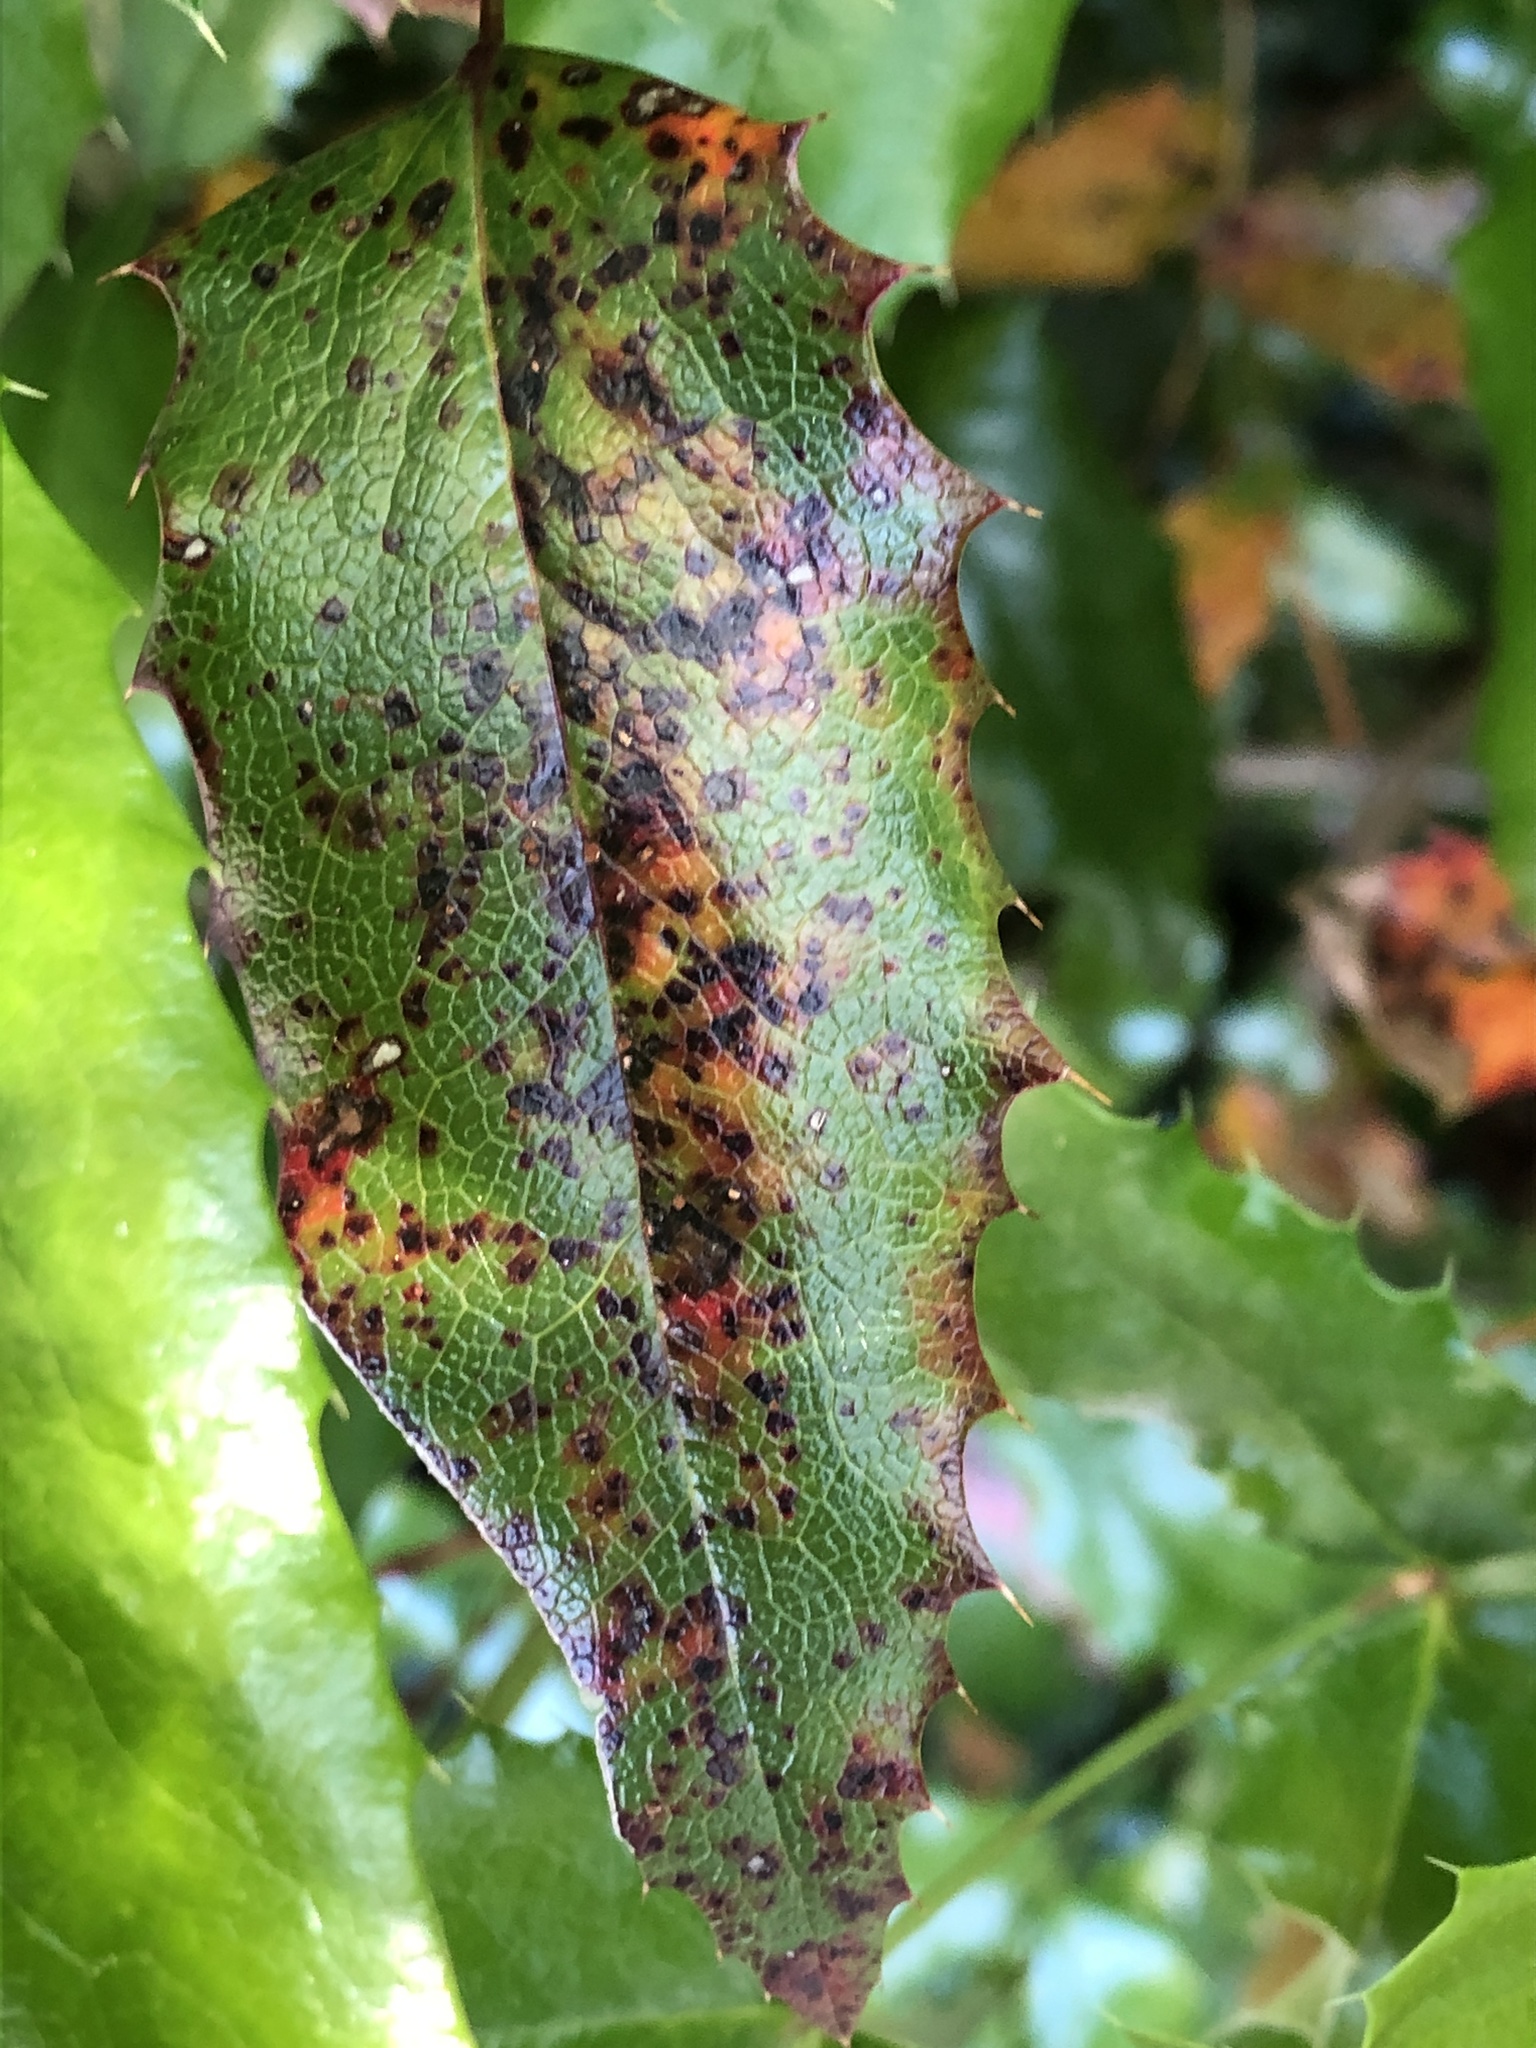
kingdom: Fungi
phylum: Basidiomycota
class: Pucciniomycetes
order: Pucciniales
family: Pucciniaceae
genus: Cumminsiella
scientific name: Cumminsiella mirabilissima
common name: Mahonia rust
